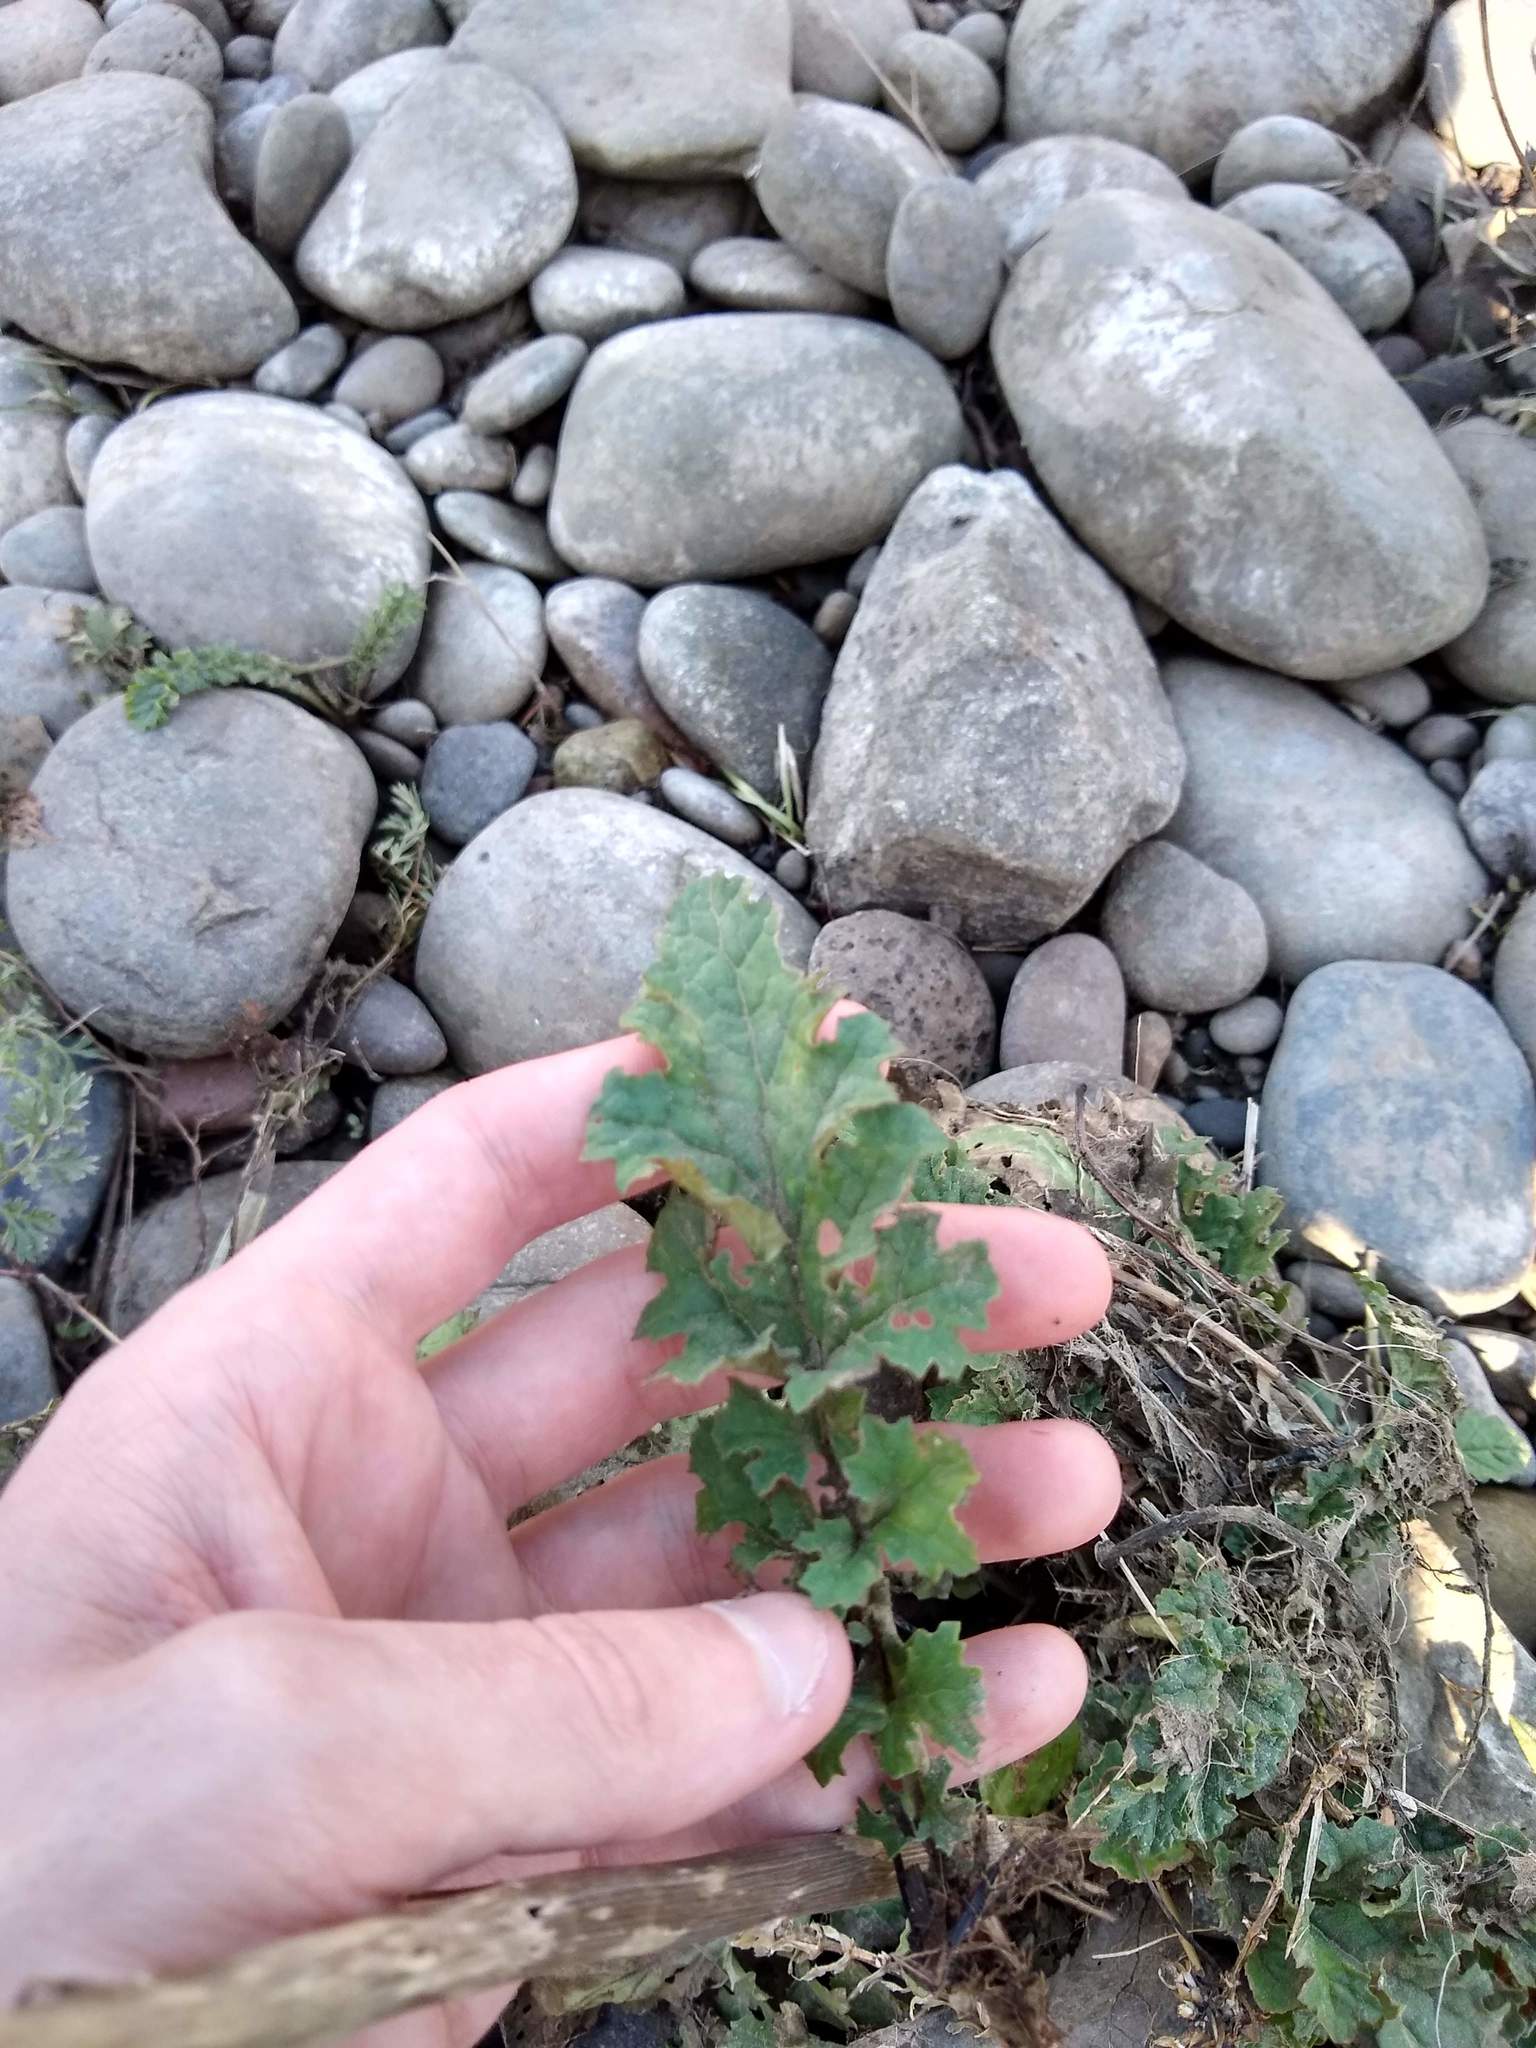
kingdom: Plantae
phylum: Tracheophyta
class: Magnoliopsida
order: Asterales
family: Asteraceae
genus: Jacobaea
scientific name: Jacobaea vulgaris
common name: Stinking willie
